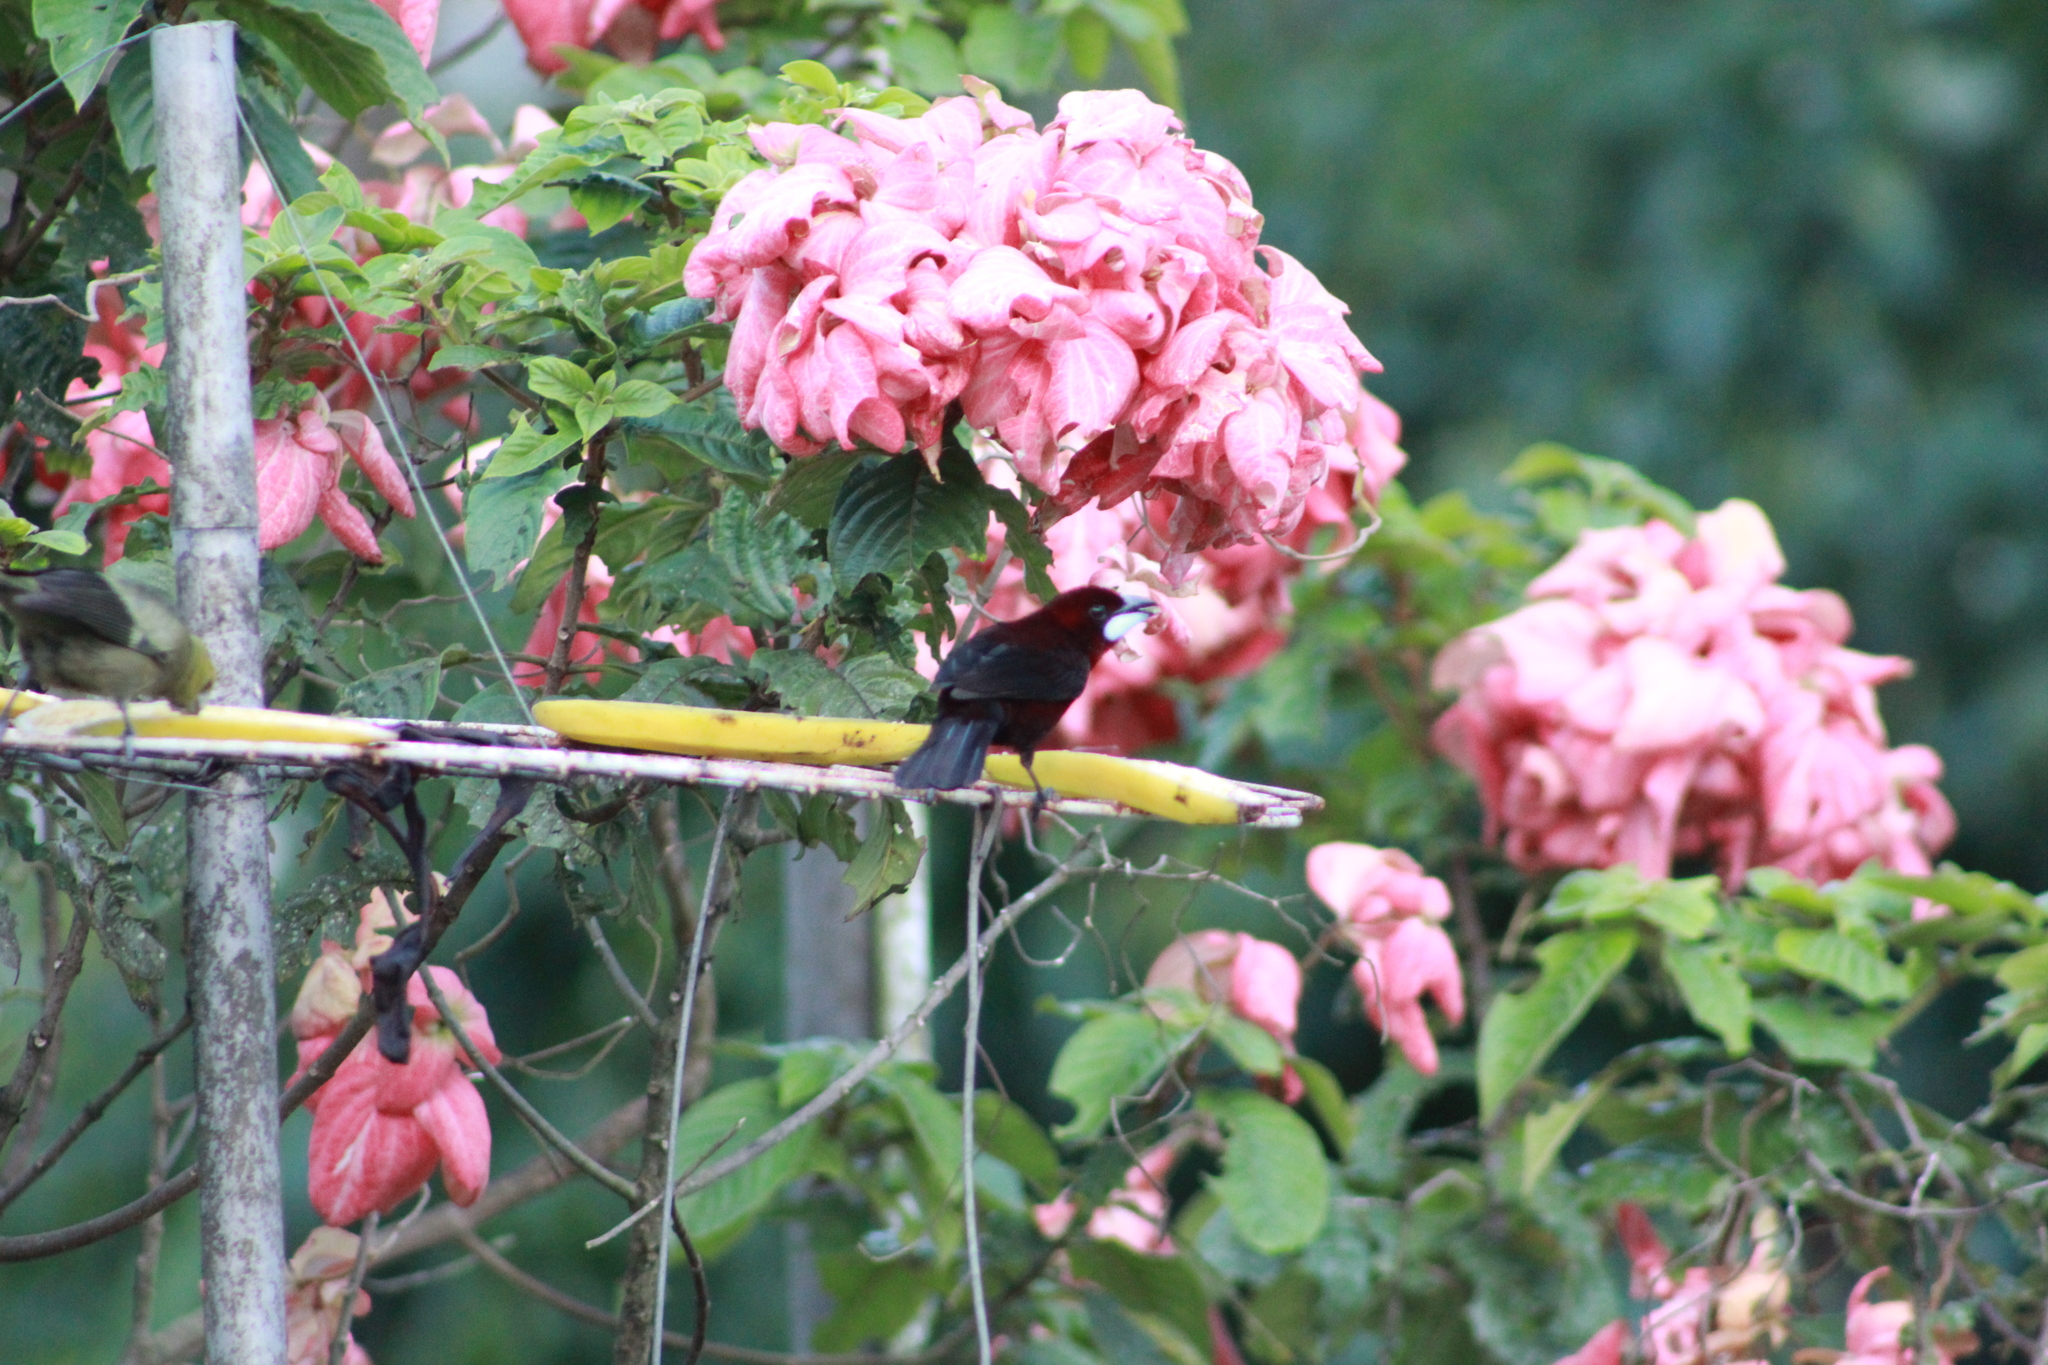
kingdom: Animalia
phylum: Chordata
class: Aves
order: Passeriformes
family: Thraupidae
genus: Ramphocelus
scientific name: Ramphocelus carbo
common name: Silver-beaked tanager
